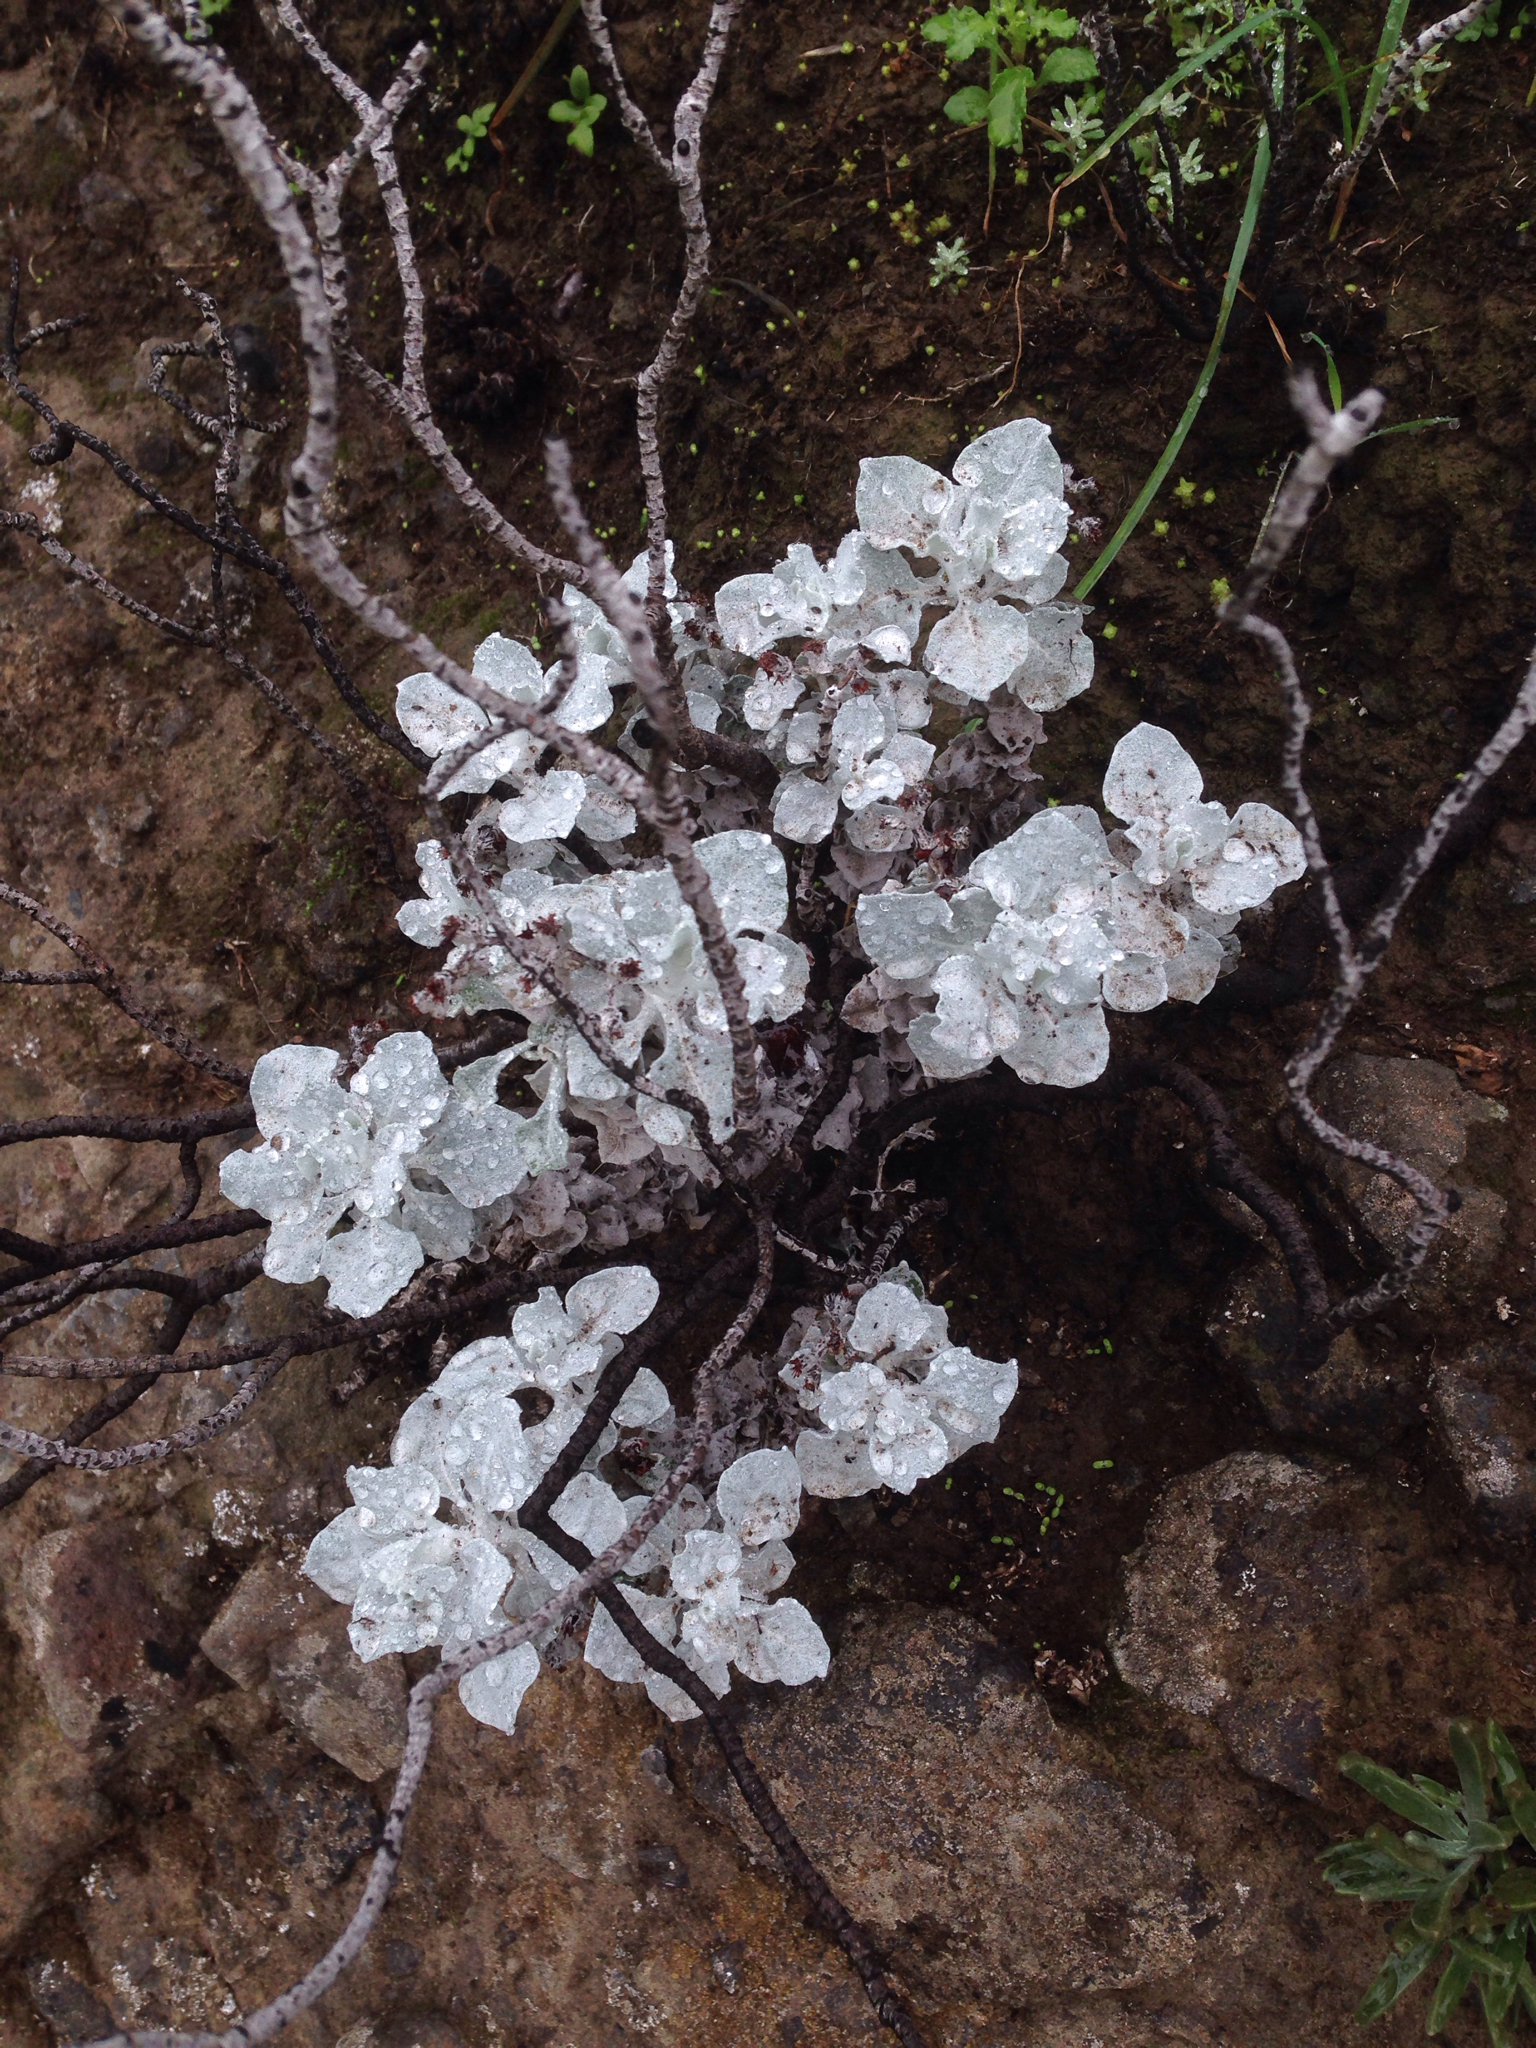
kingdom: Plantae
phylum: Tracheophyta
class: Magnoliopsida
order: Caryophyllales
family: Polygonaceae
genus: Eriogonum
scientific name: Eriogonum crocatum
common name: Saffron wild buckwheat
